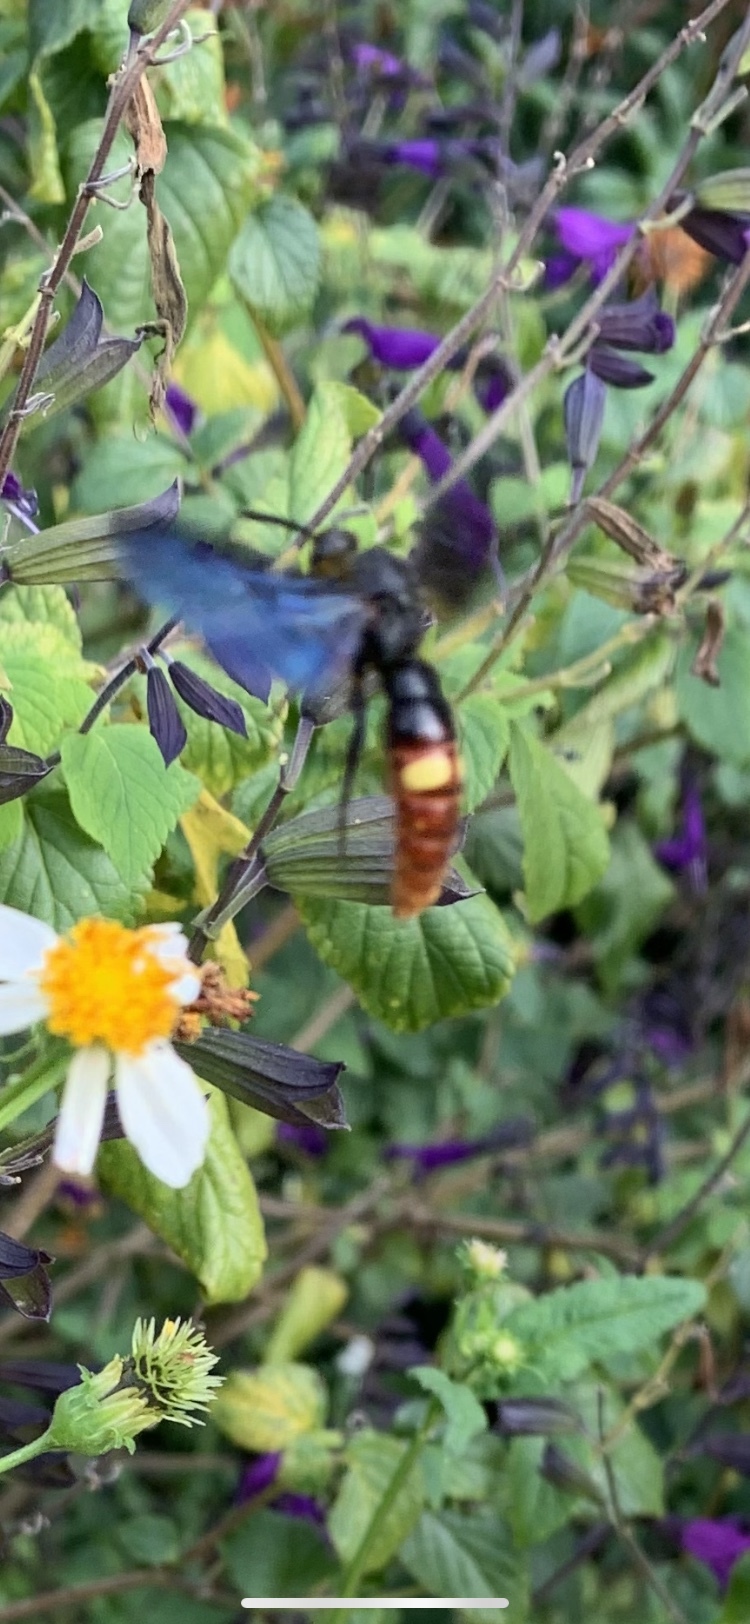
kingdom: Animalia
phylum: Arthropoda
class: Insecta
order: Hymenoptera
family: Scoliidae
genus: Scolia
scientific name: Scolia dubia
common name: Blue-winged scoliid wasp
